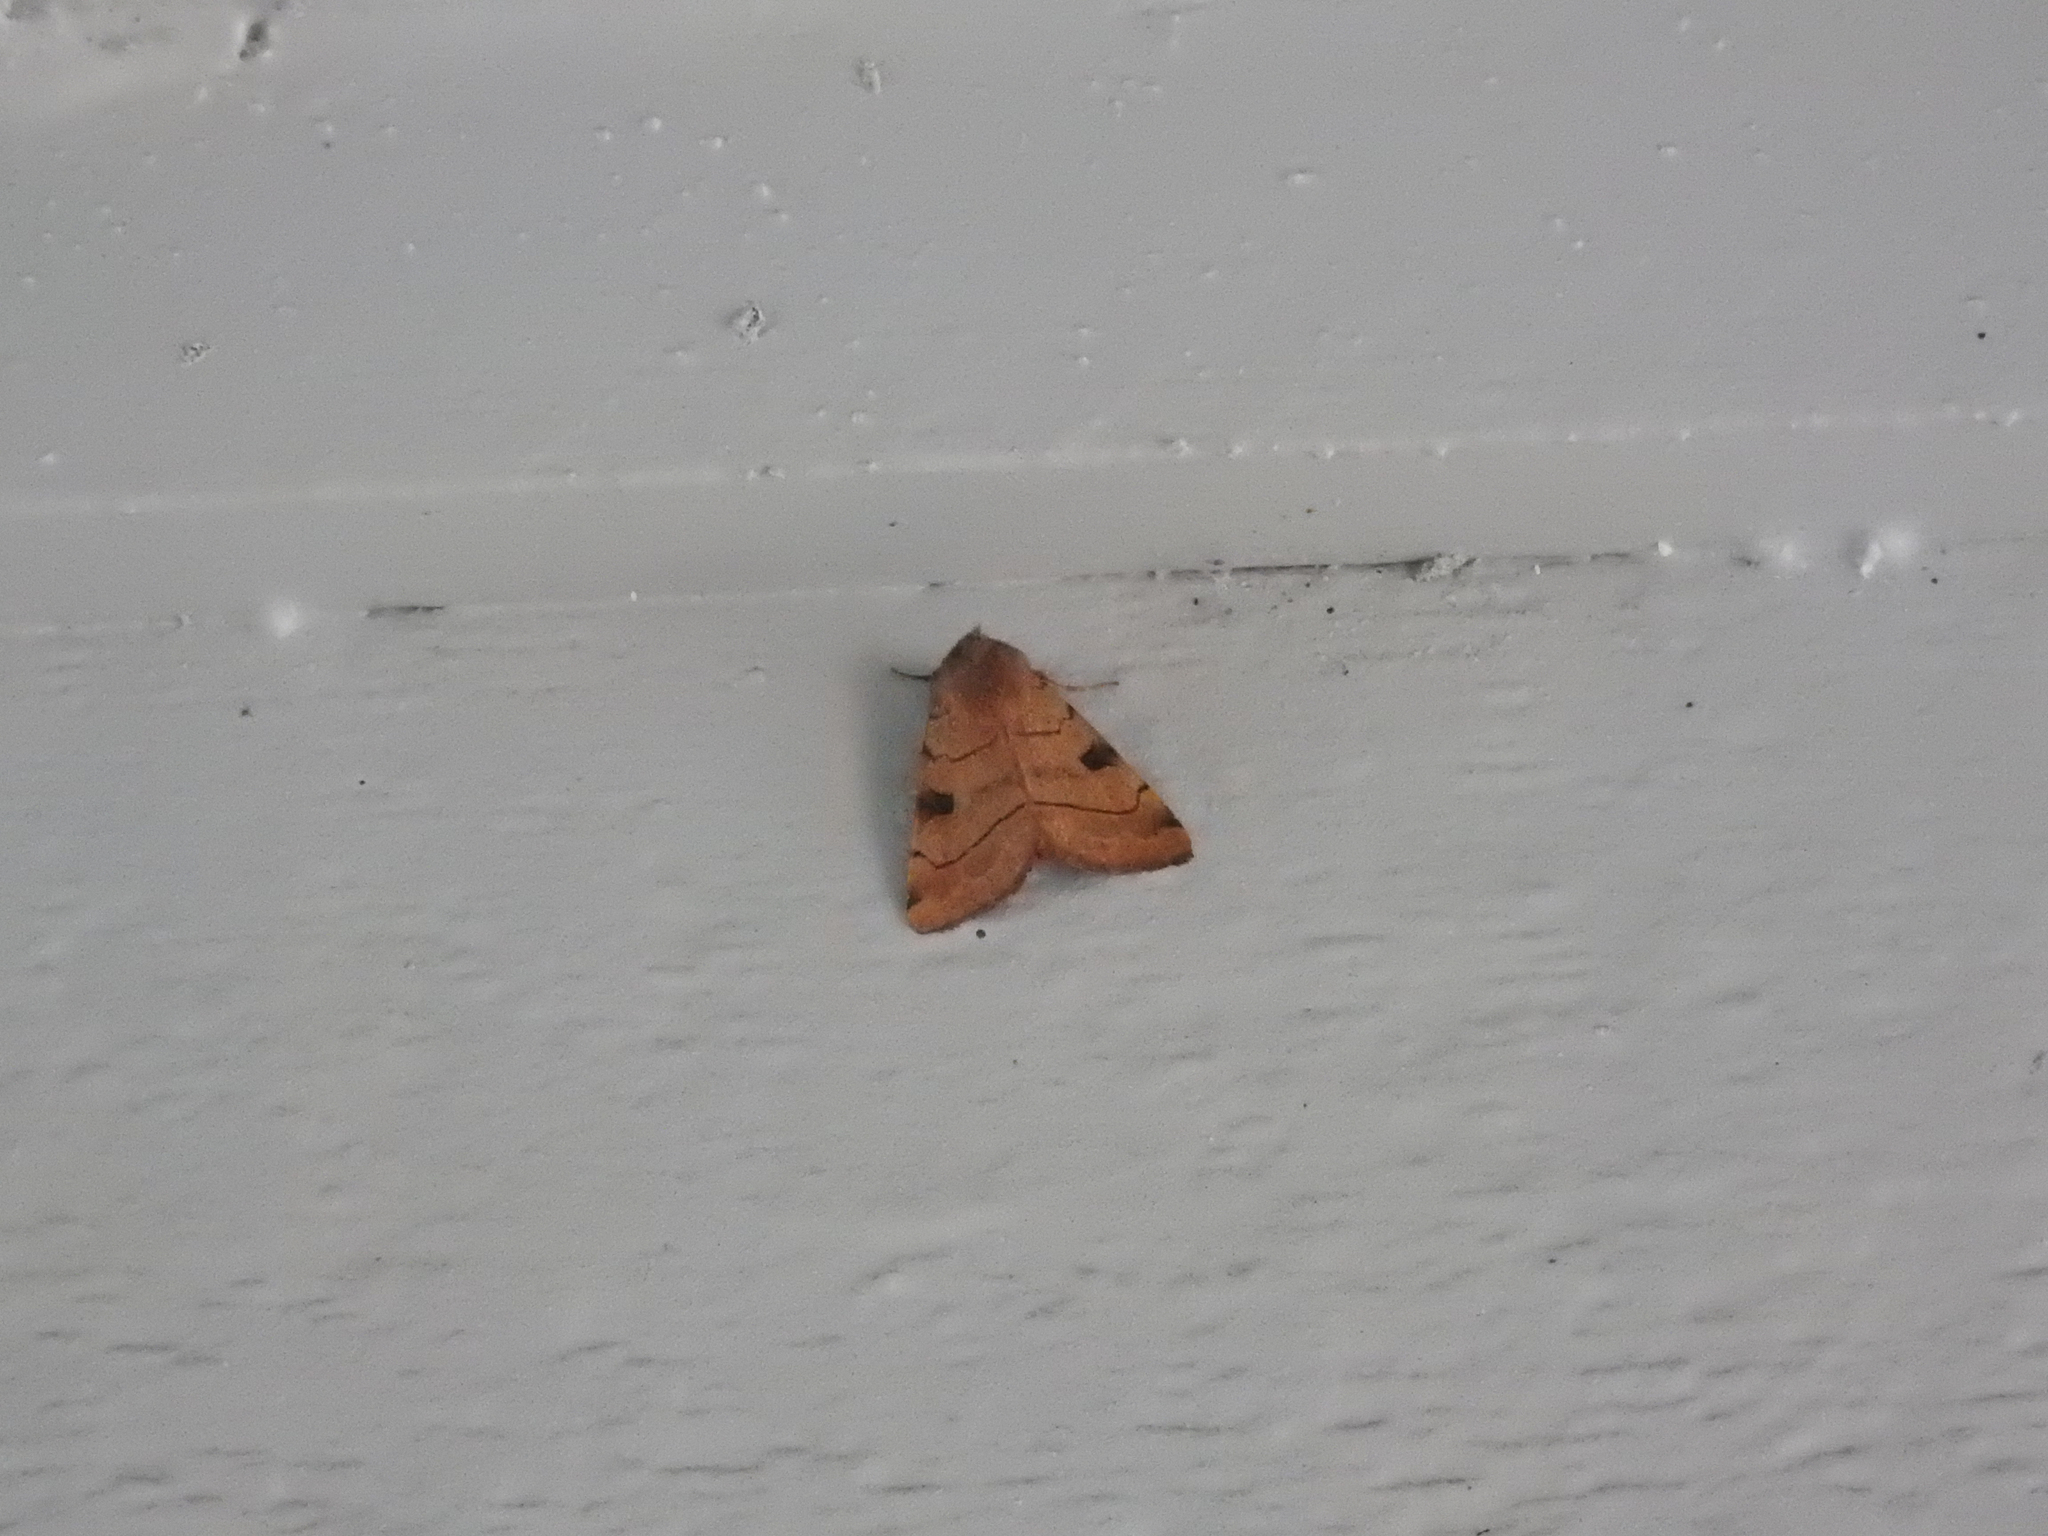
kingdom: Animalia
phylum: Arthropoda
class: Insecta
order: Lepidoptera
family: Noctuidae
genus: Choephora
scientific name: Choephora fungorum
